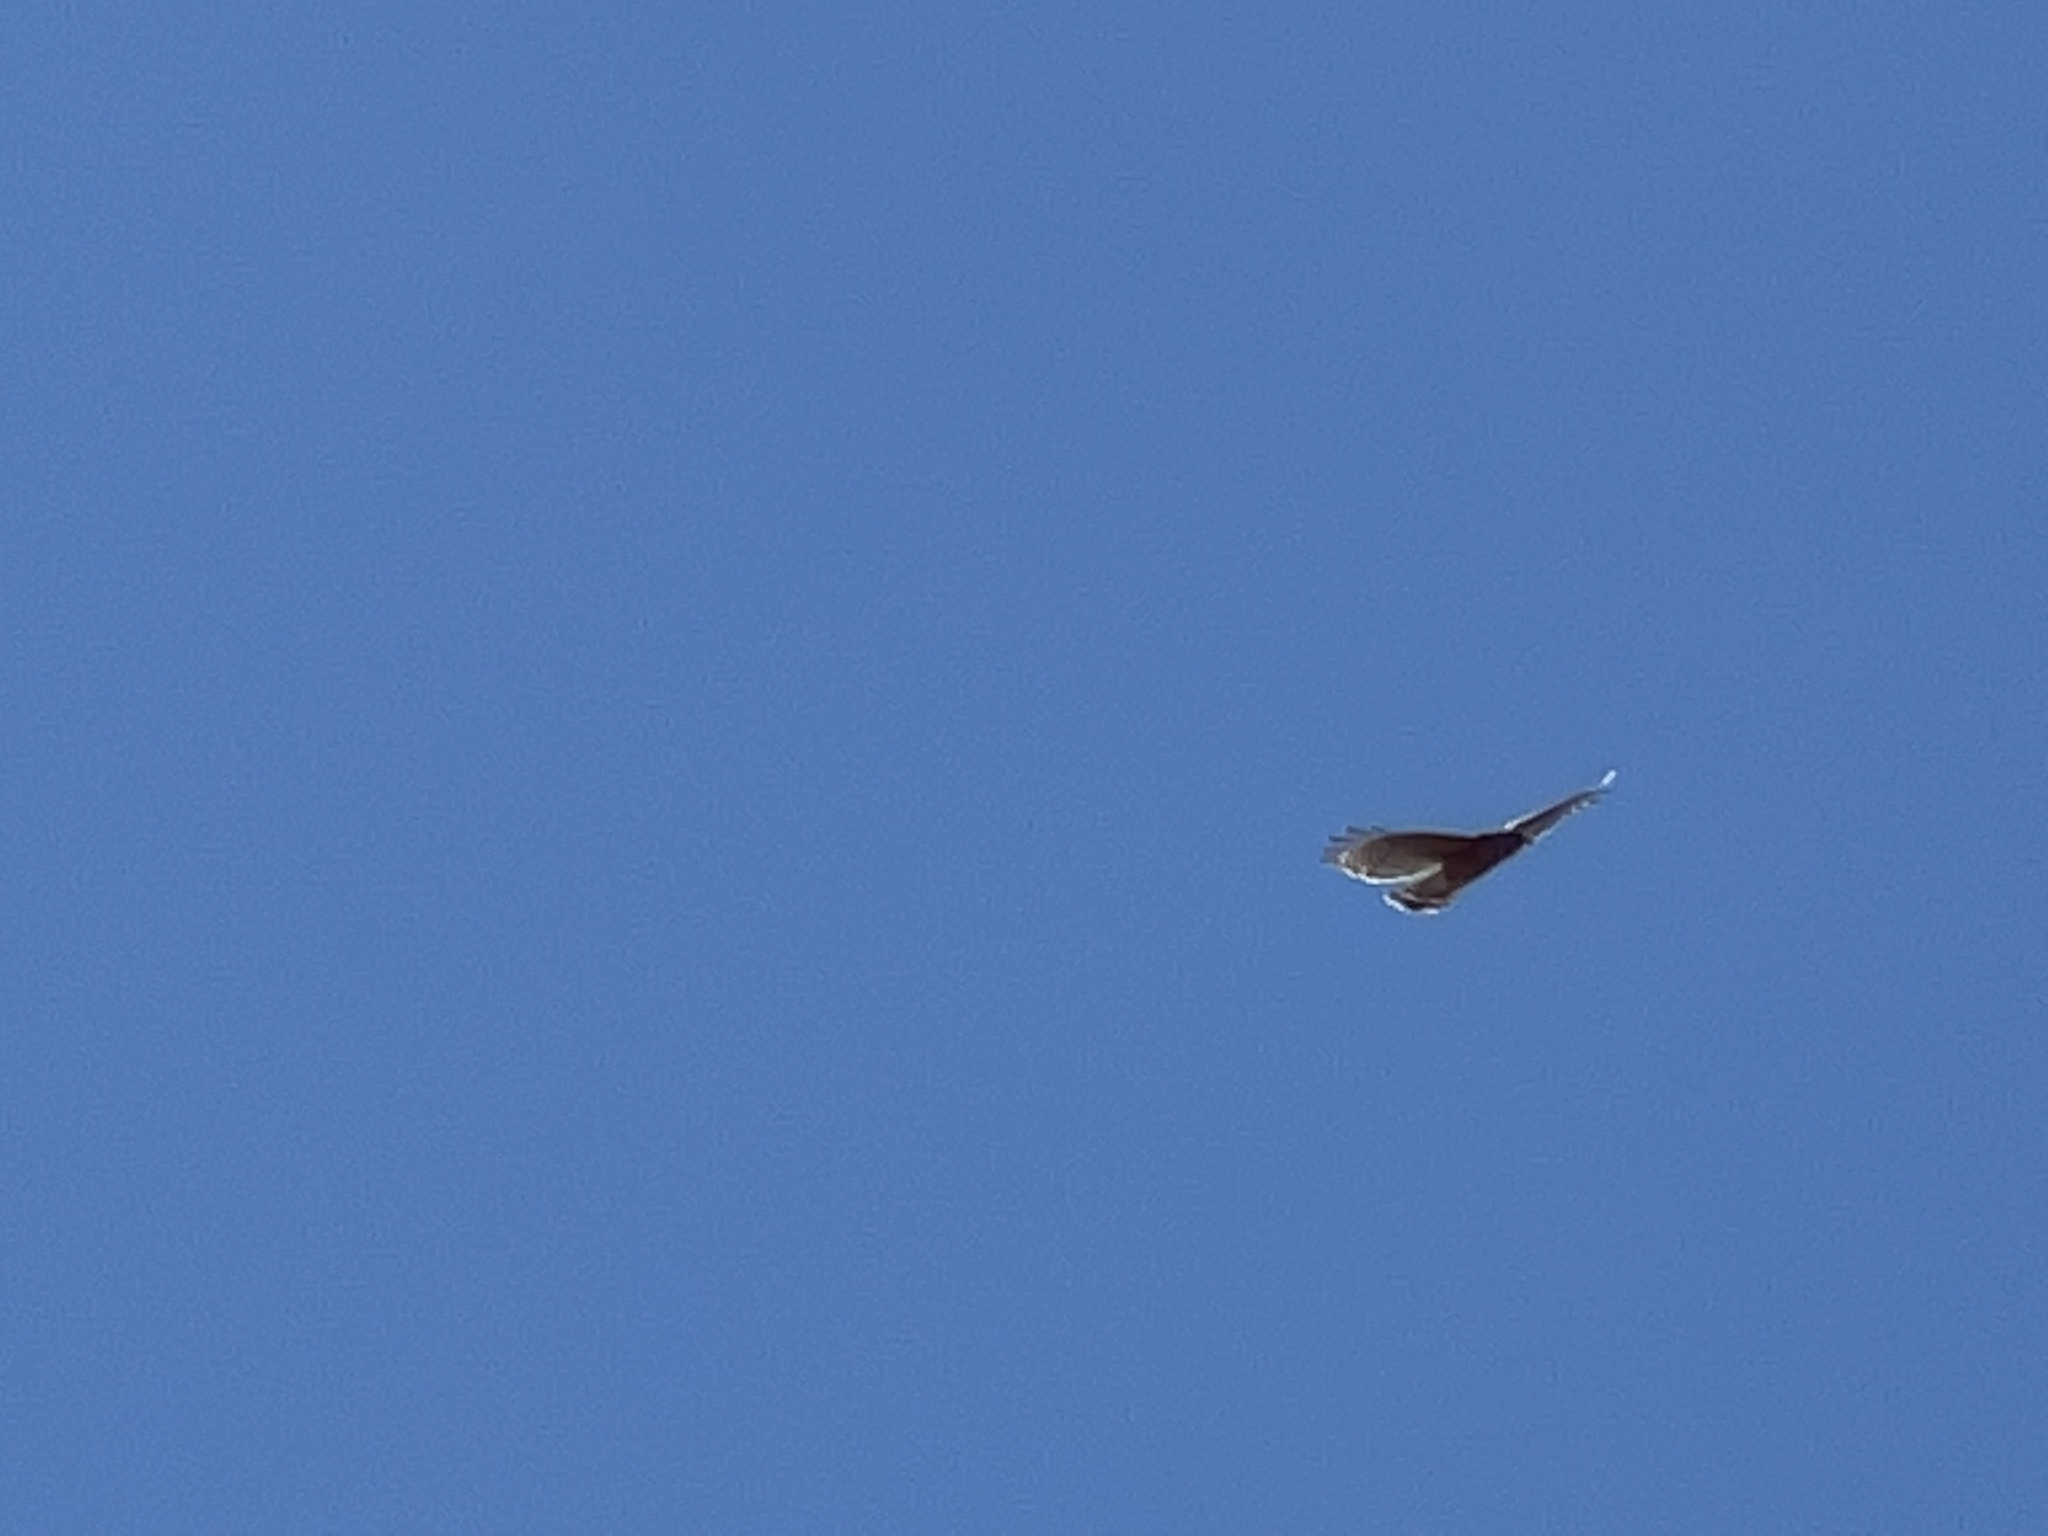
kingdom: Animalia
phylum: Chordata
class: Aves
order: Accipitriformes
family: Accipitridae
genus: Buteo
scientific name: Buteo lineatus
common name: Red-shouldered hawk
